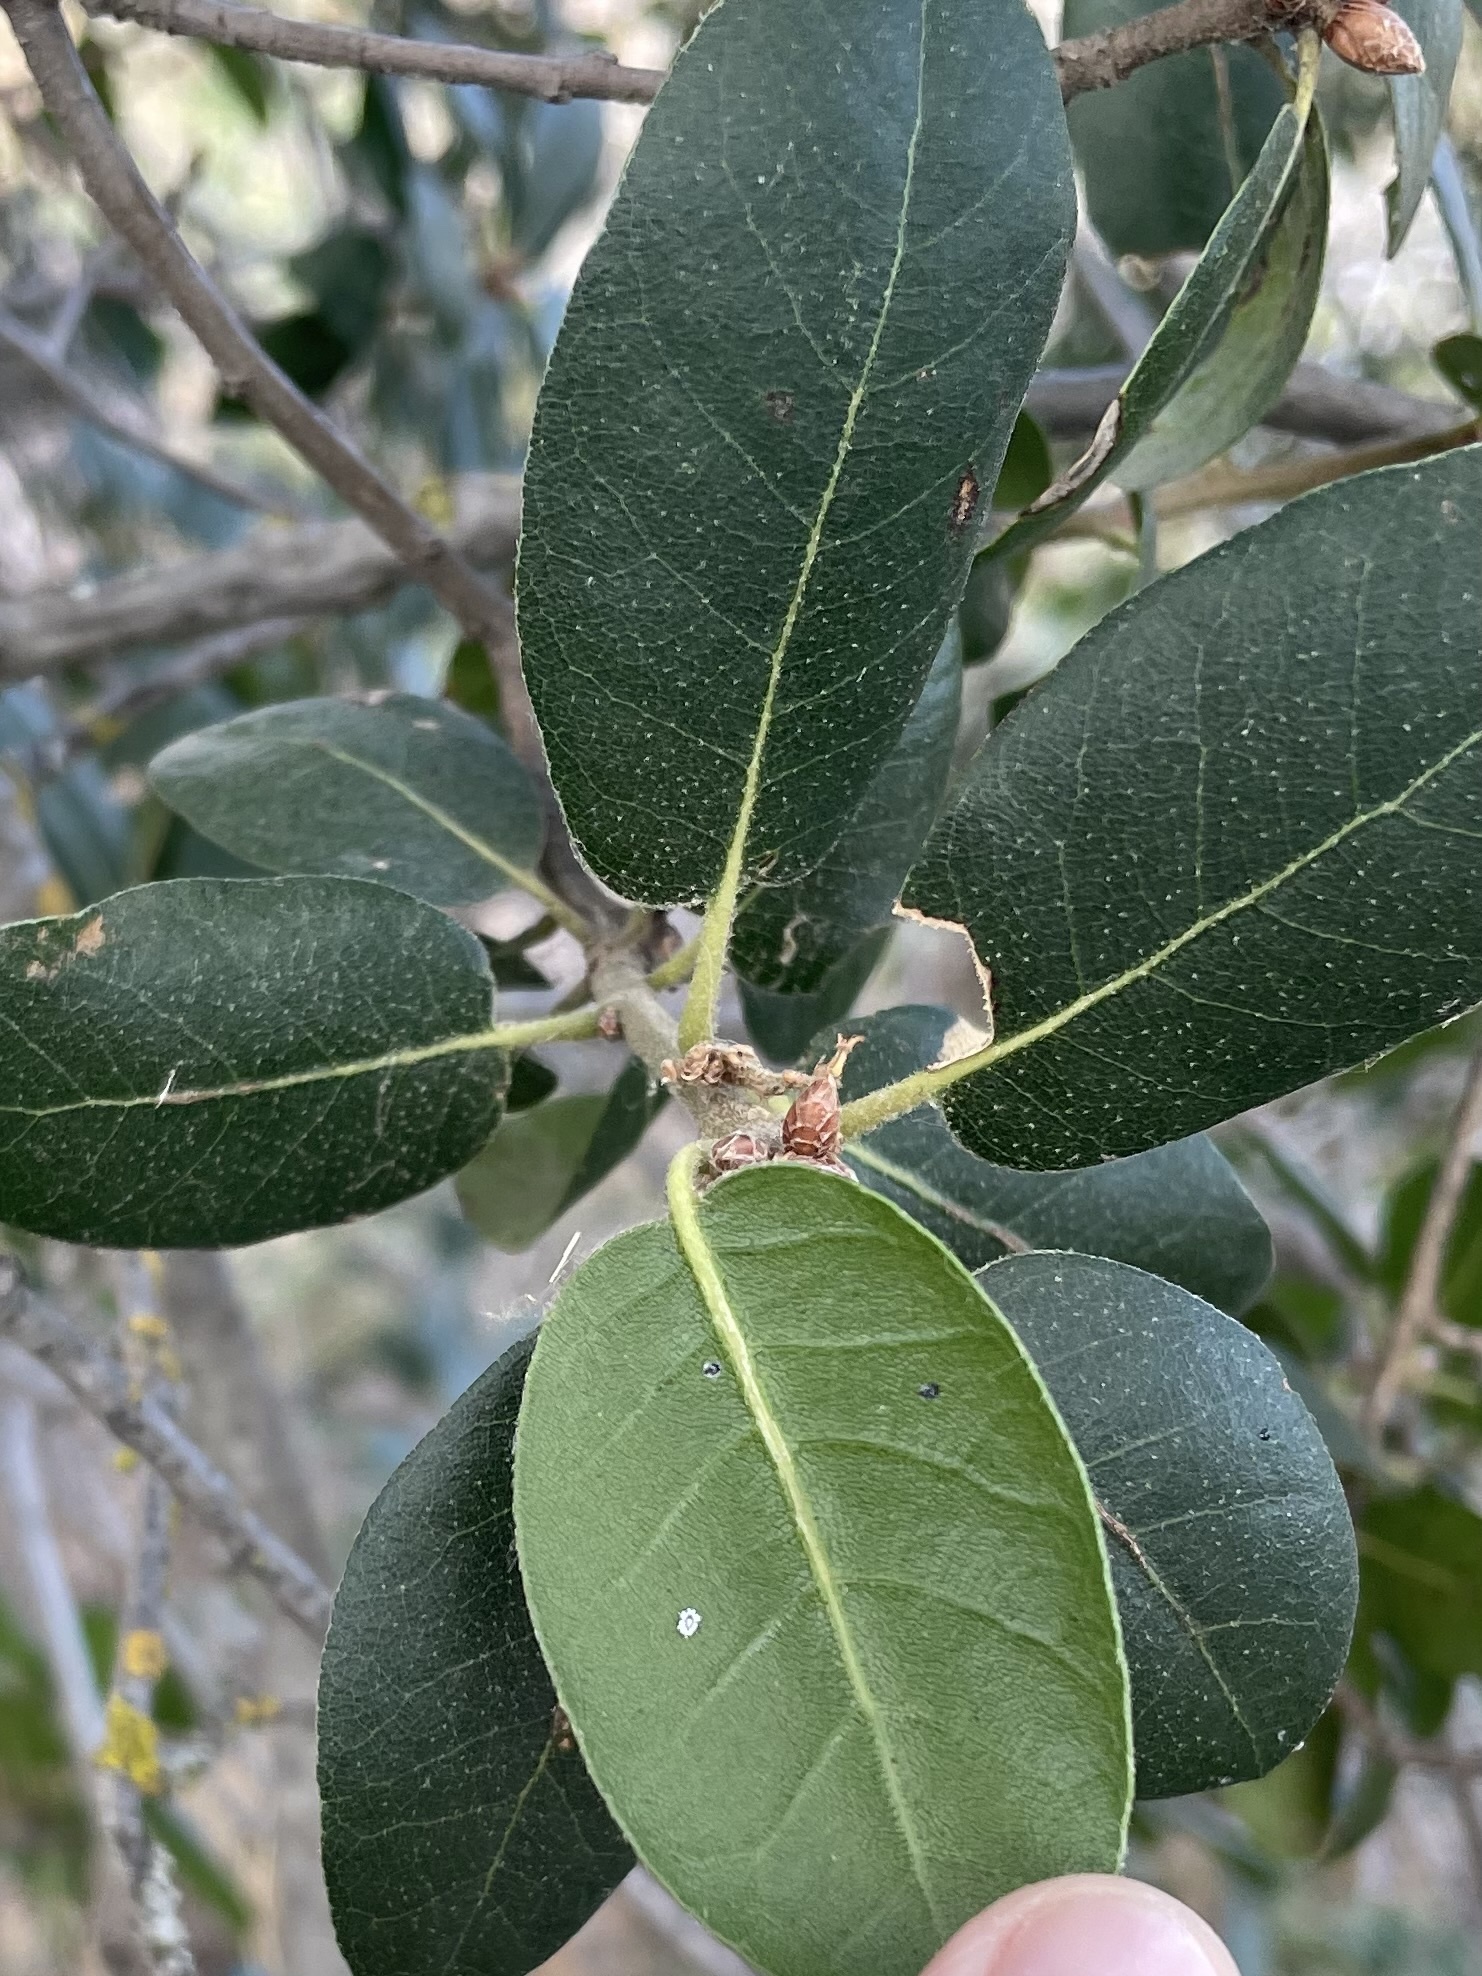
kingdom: Plantae
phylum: Tracheophyta
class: Magnoliopsida
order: Fagales
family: Fagaceae
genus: Quercus
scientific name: Quercus wislizeni
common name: Interior live oak
